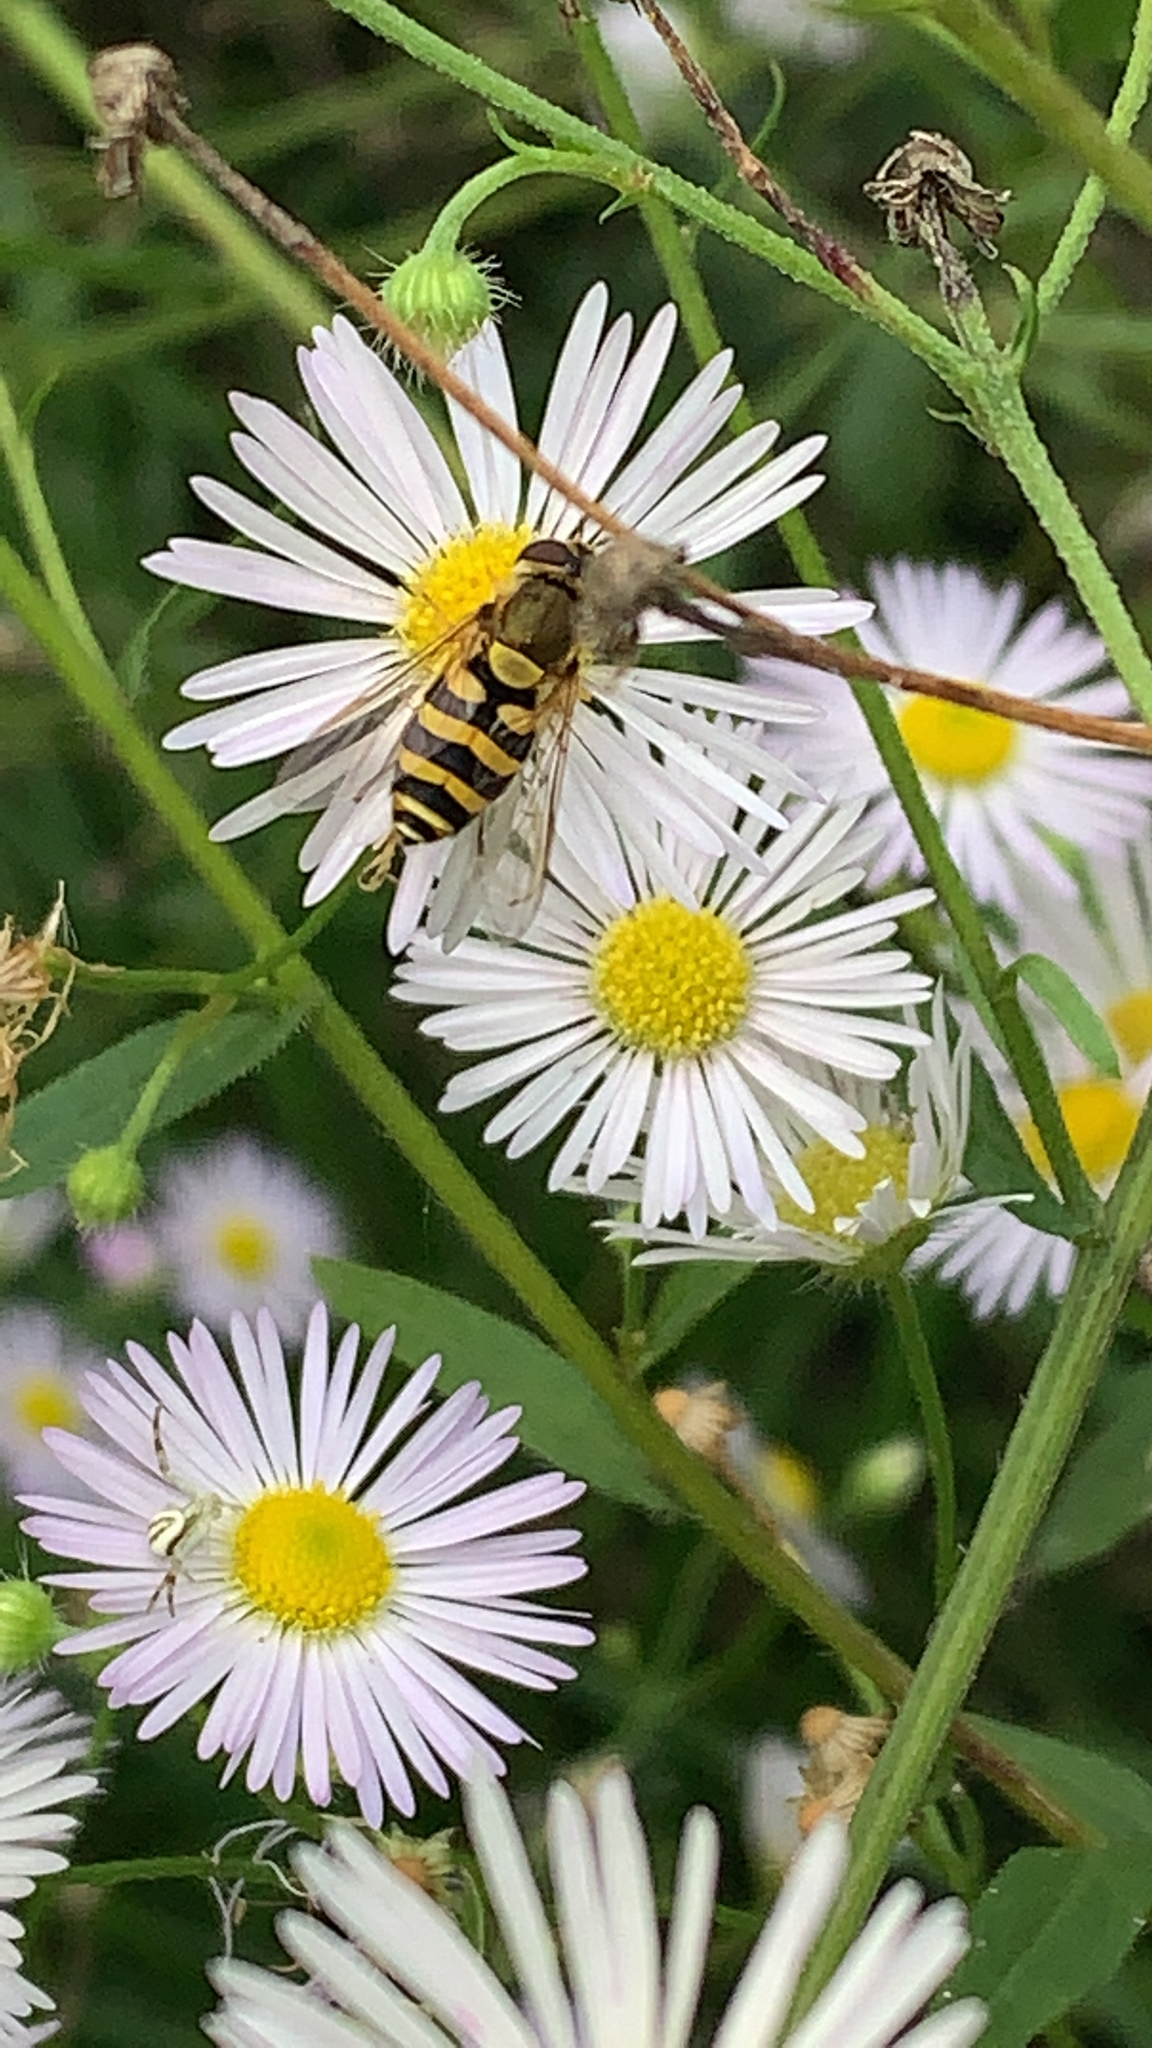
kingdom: Animalia
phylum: Arthropoda
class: Insecta
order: Diptera
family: Syrphidae
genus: Syrphus
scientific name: Syrphus
